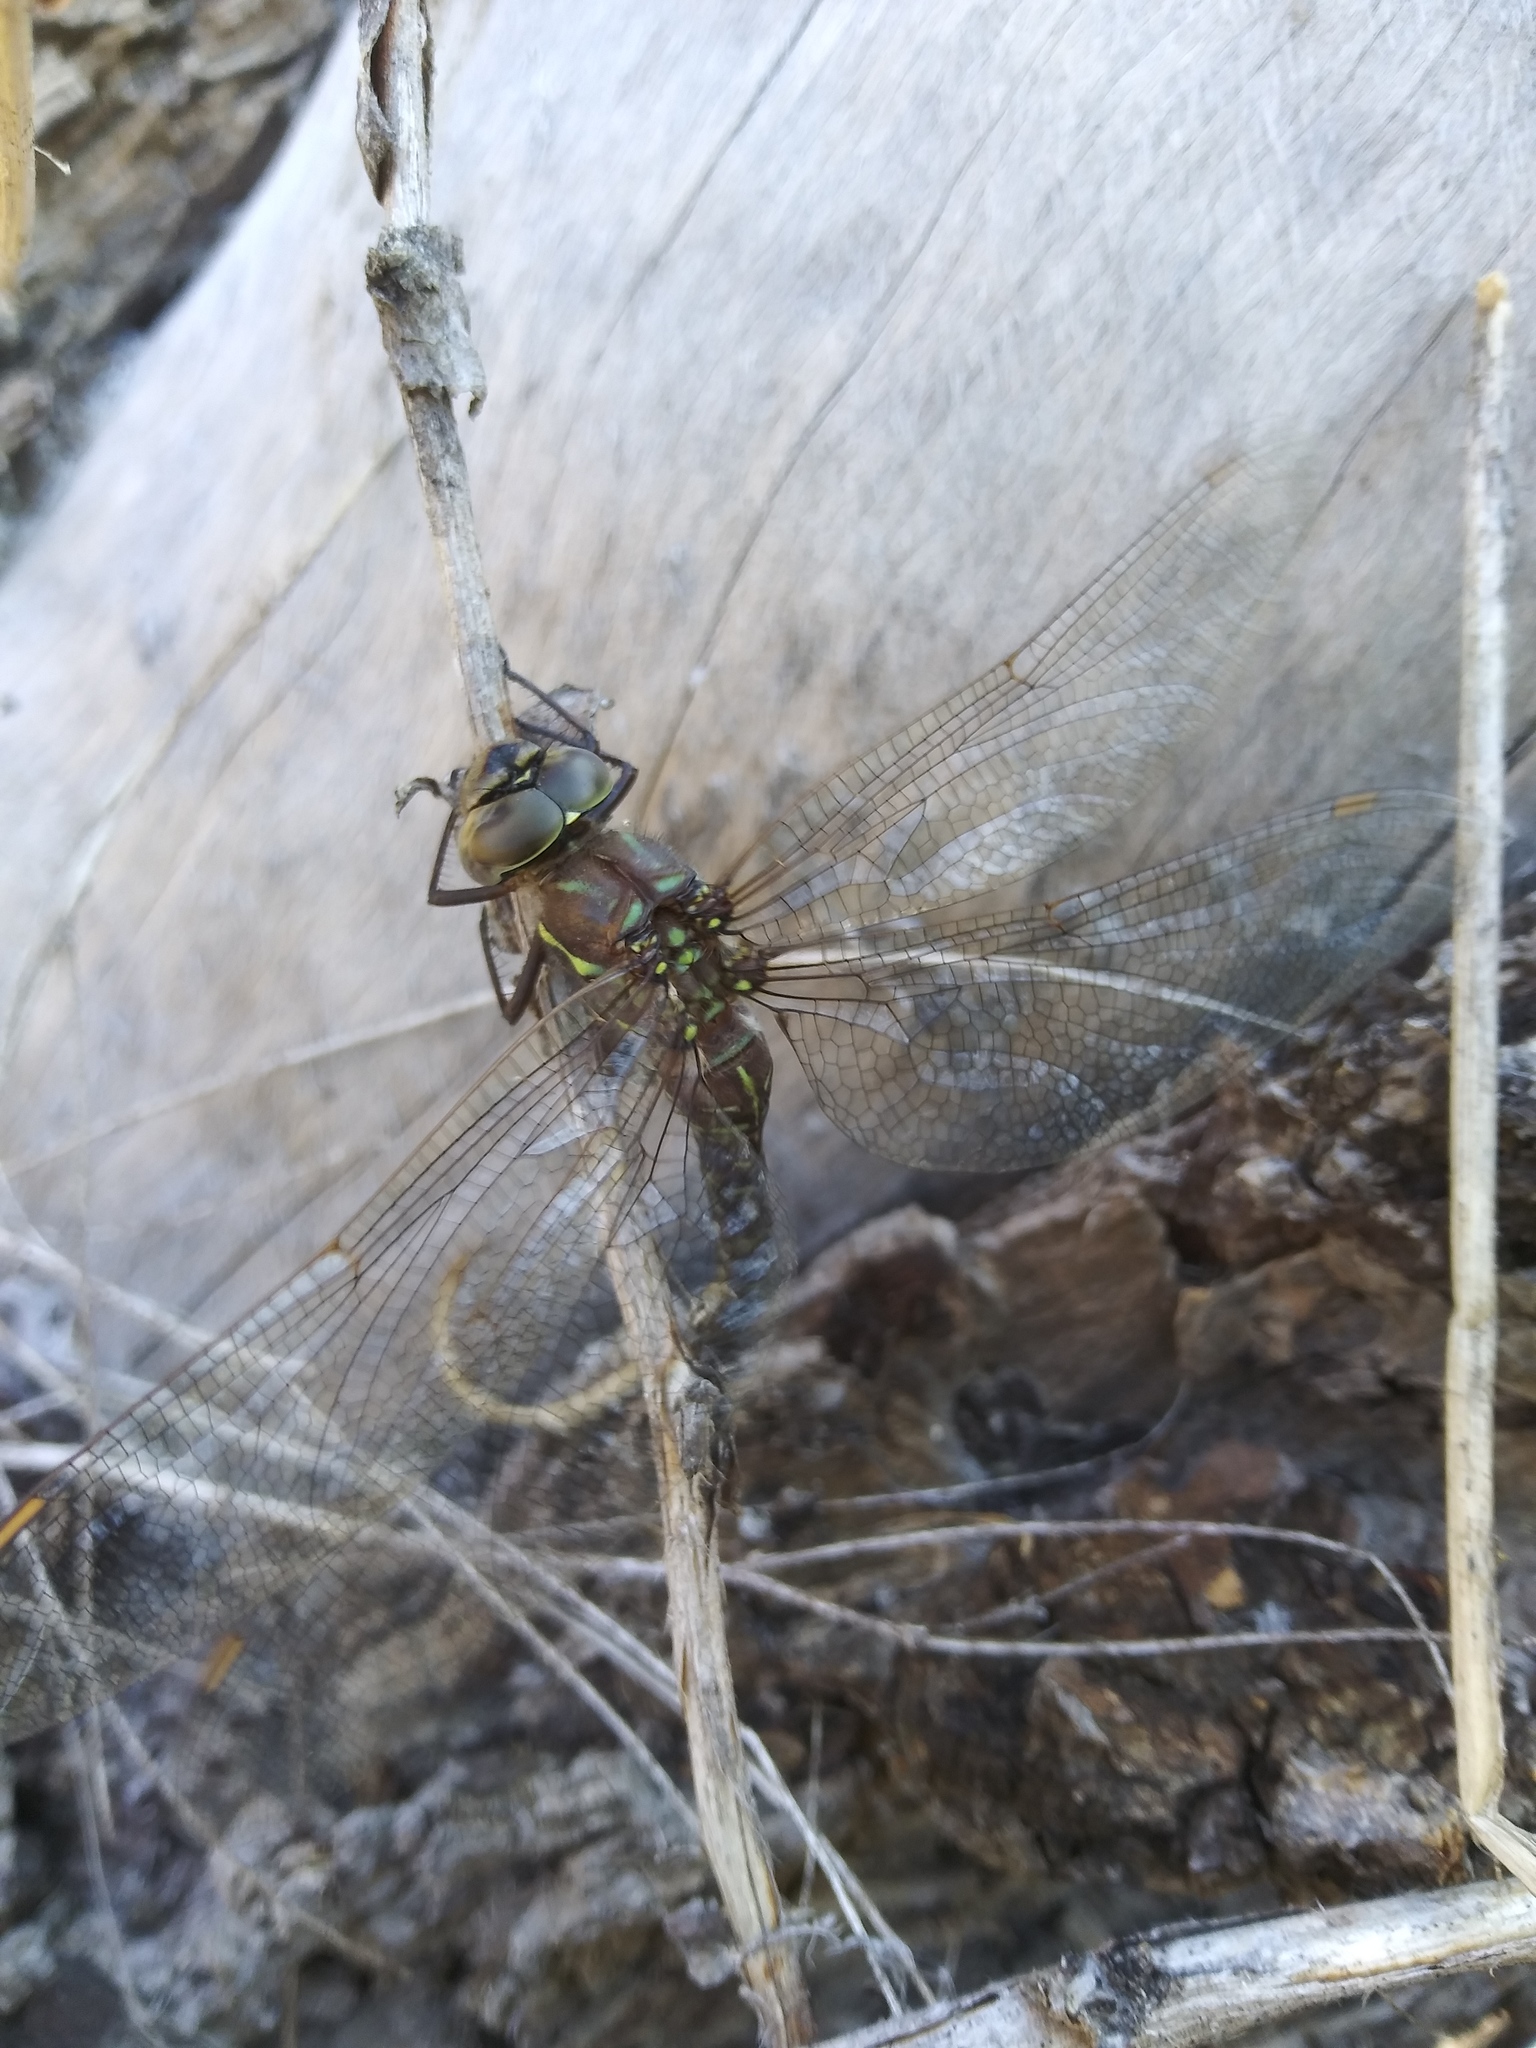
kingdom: Animalia
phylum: Arthropoda
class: Insecta
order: Odonata
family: Aeshnidae
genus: Aeshna
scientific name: Aeshna umbrosa
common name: Shadow darner
